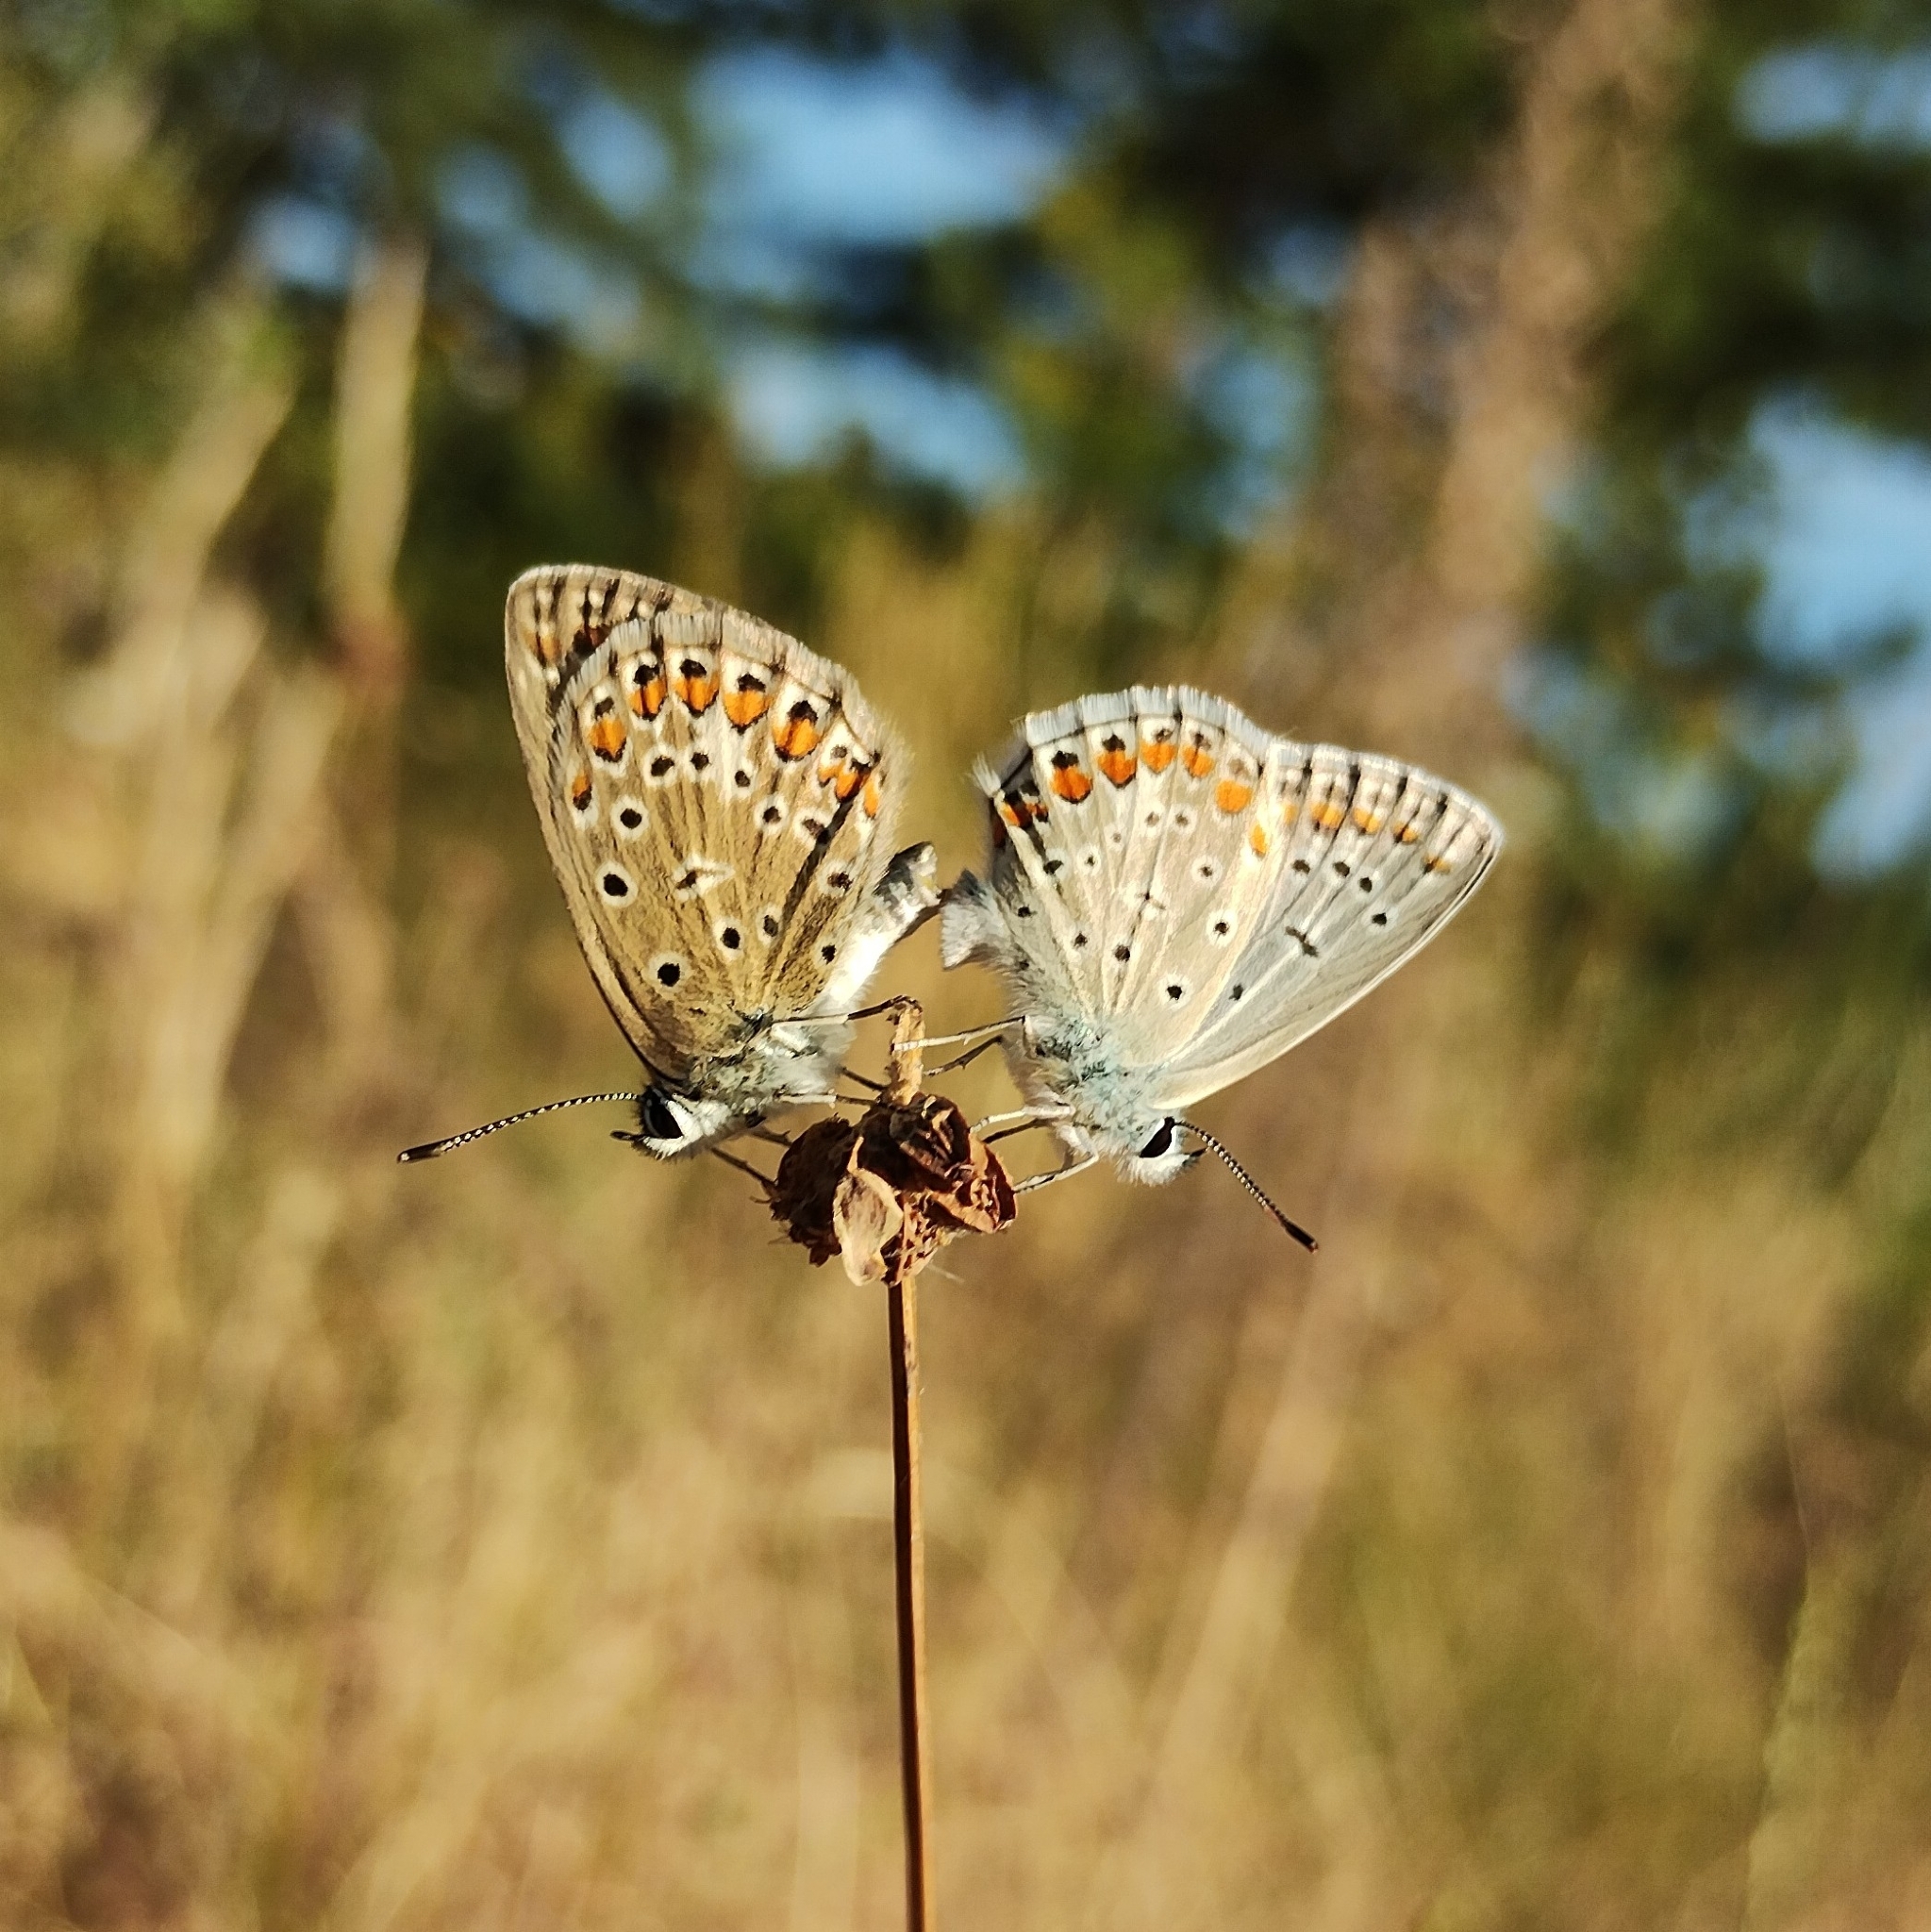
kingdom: Animalia
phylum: Arthropoda
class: Insecta
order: Lepidoptera
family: Lycaenidae
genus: Polyommatus
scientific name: Polyommatus icarus
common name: Common blue
